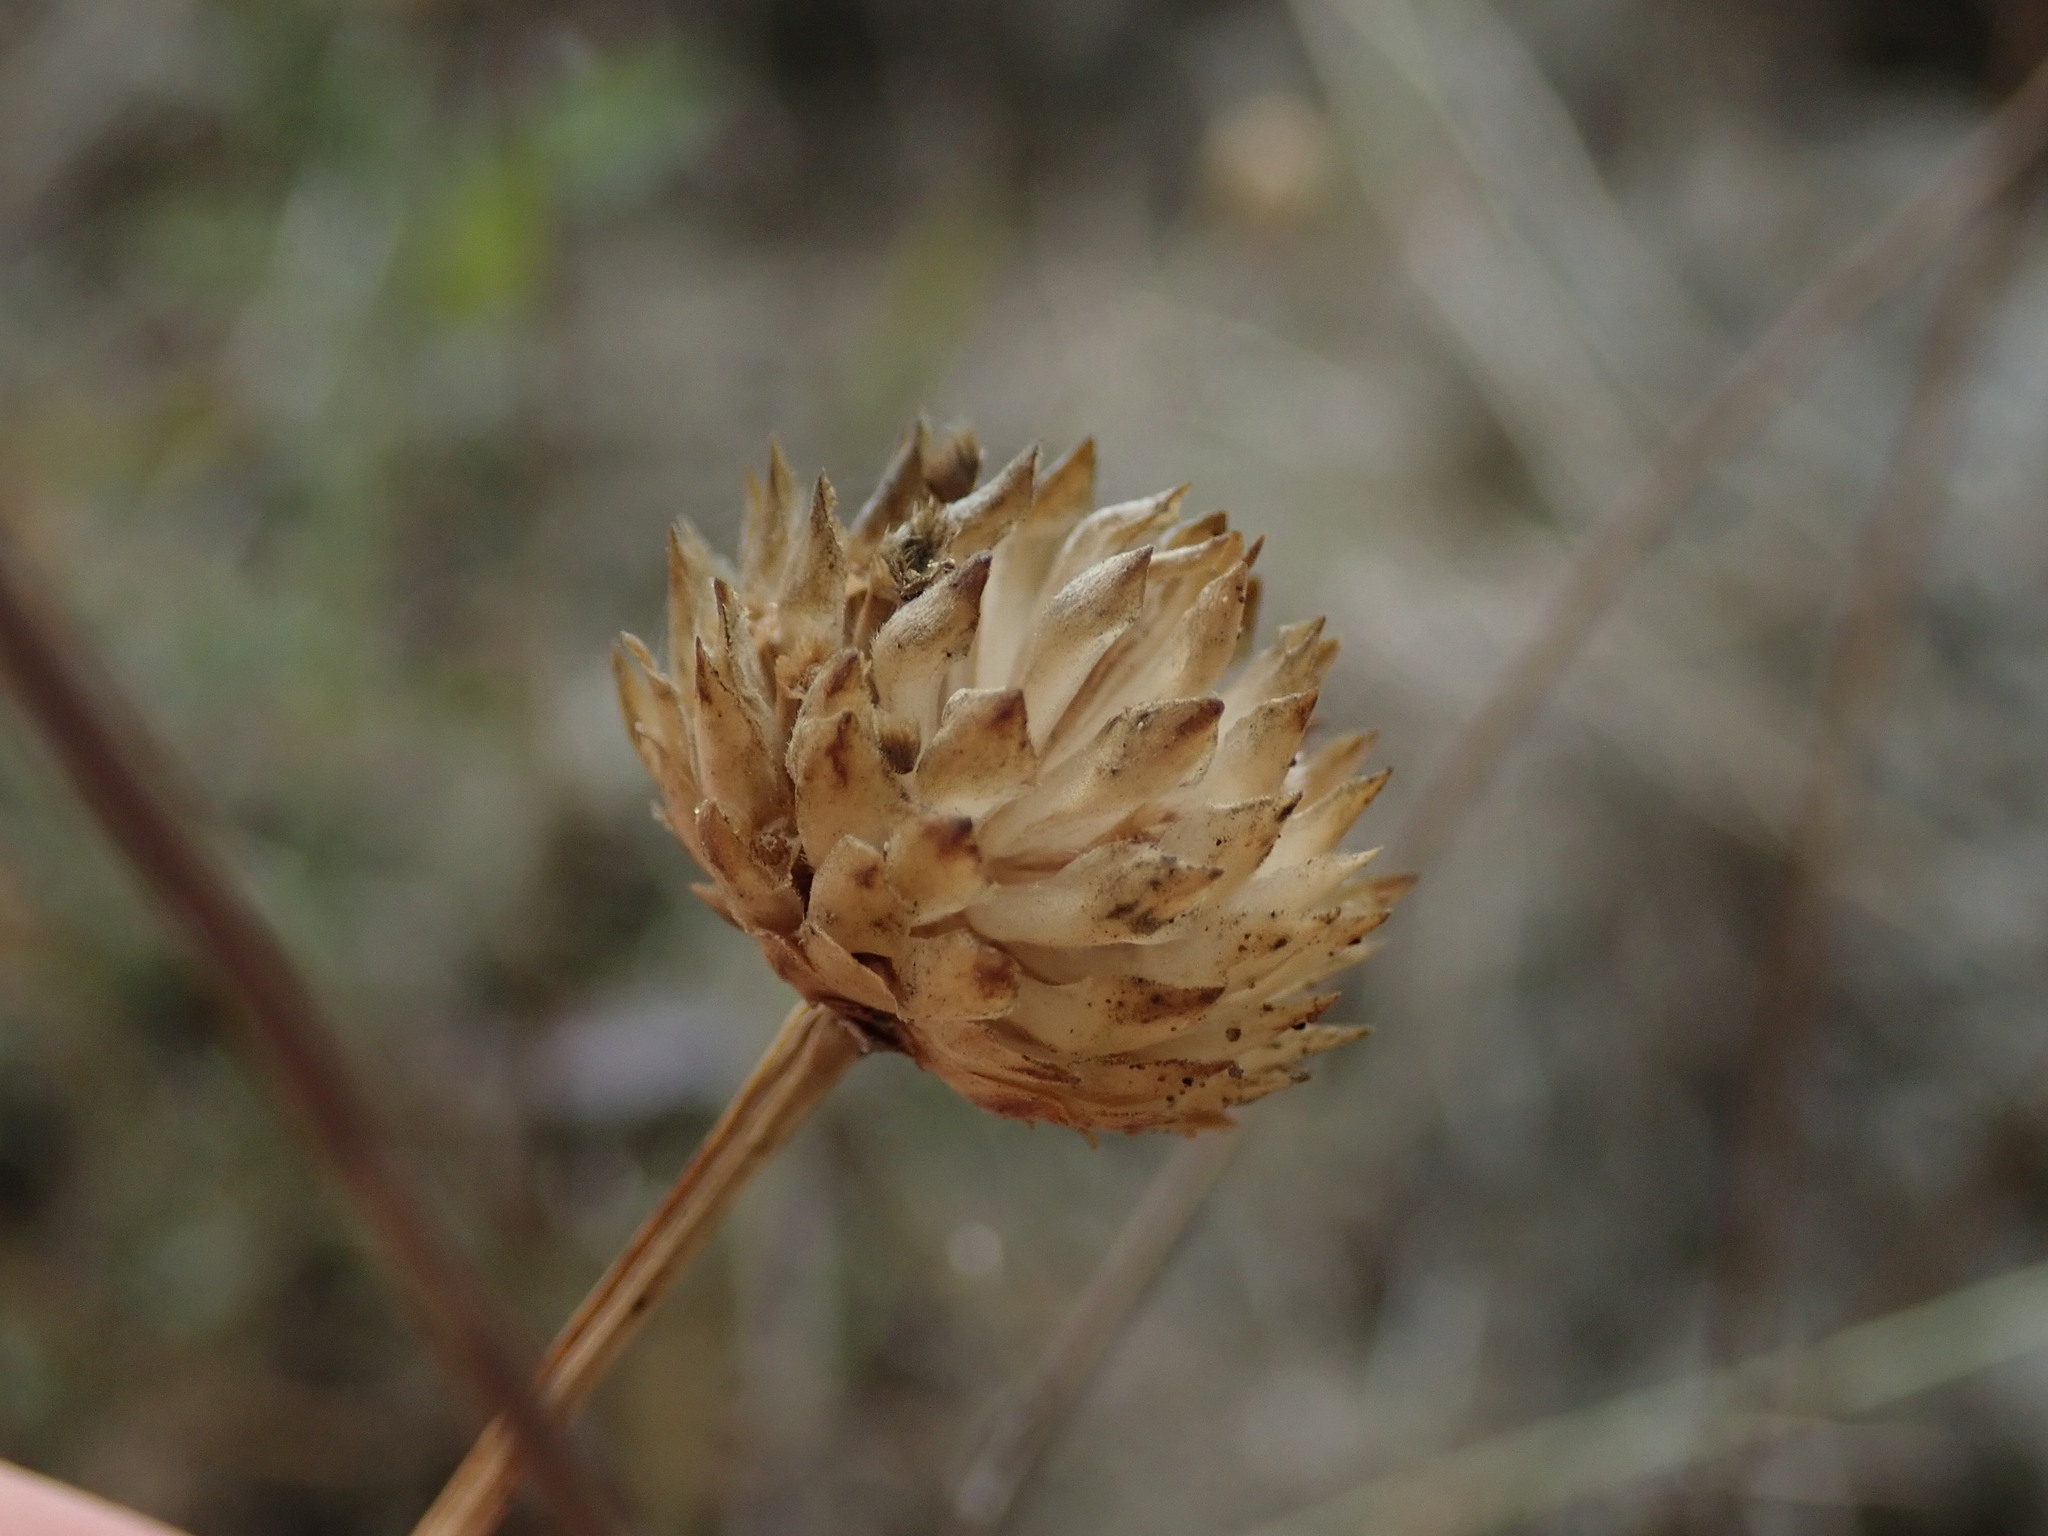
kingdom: Plantae
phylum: Tracheophyta
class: Magnoliopsida
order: Dipsacales
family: Caprifoliaceae
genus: Cephalaria
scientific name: Cephalaria leucantha
